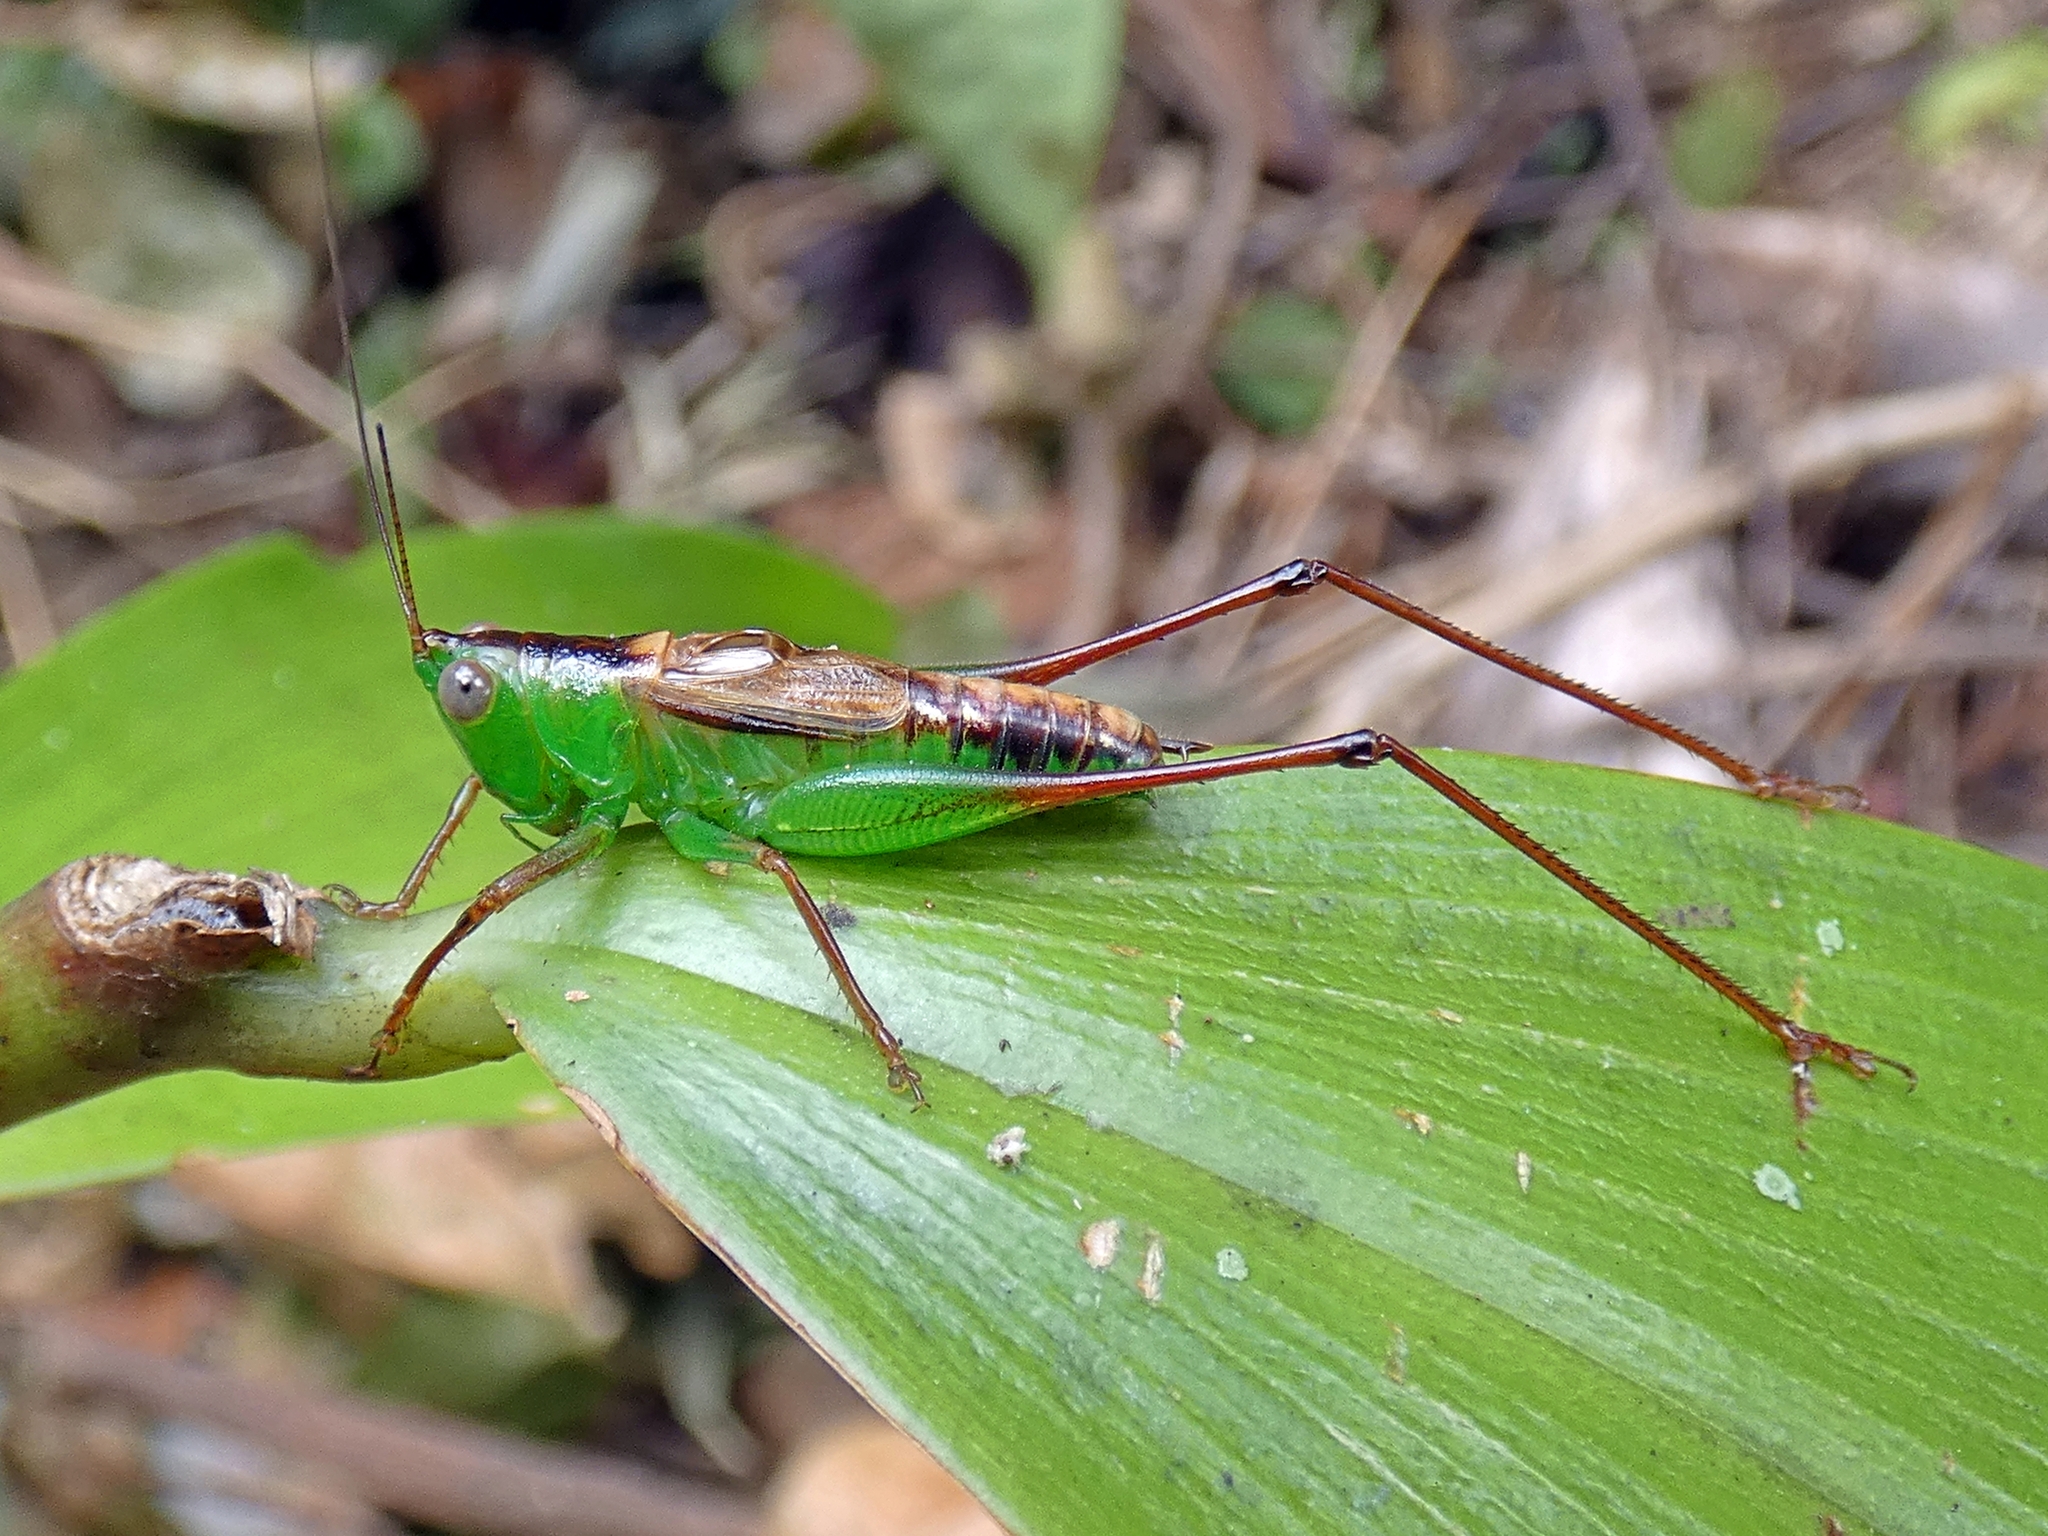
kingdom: Animalia
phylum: Arthropoda
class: Insecta
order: Orthoptera
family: Tettigoniidae
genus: Conocephalus
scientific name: Conocephalus semivittatus
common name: Blackish meadow katydid
